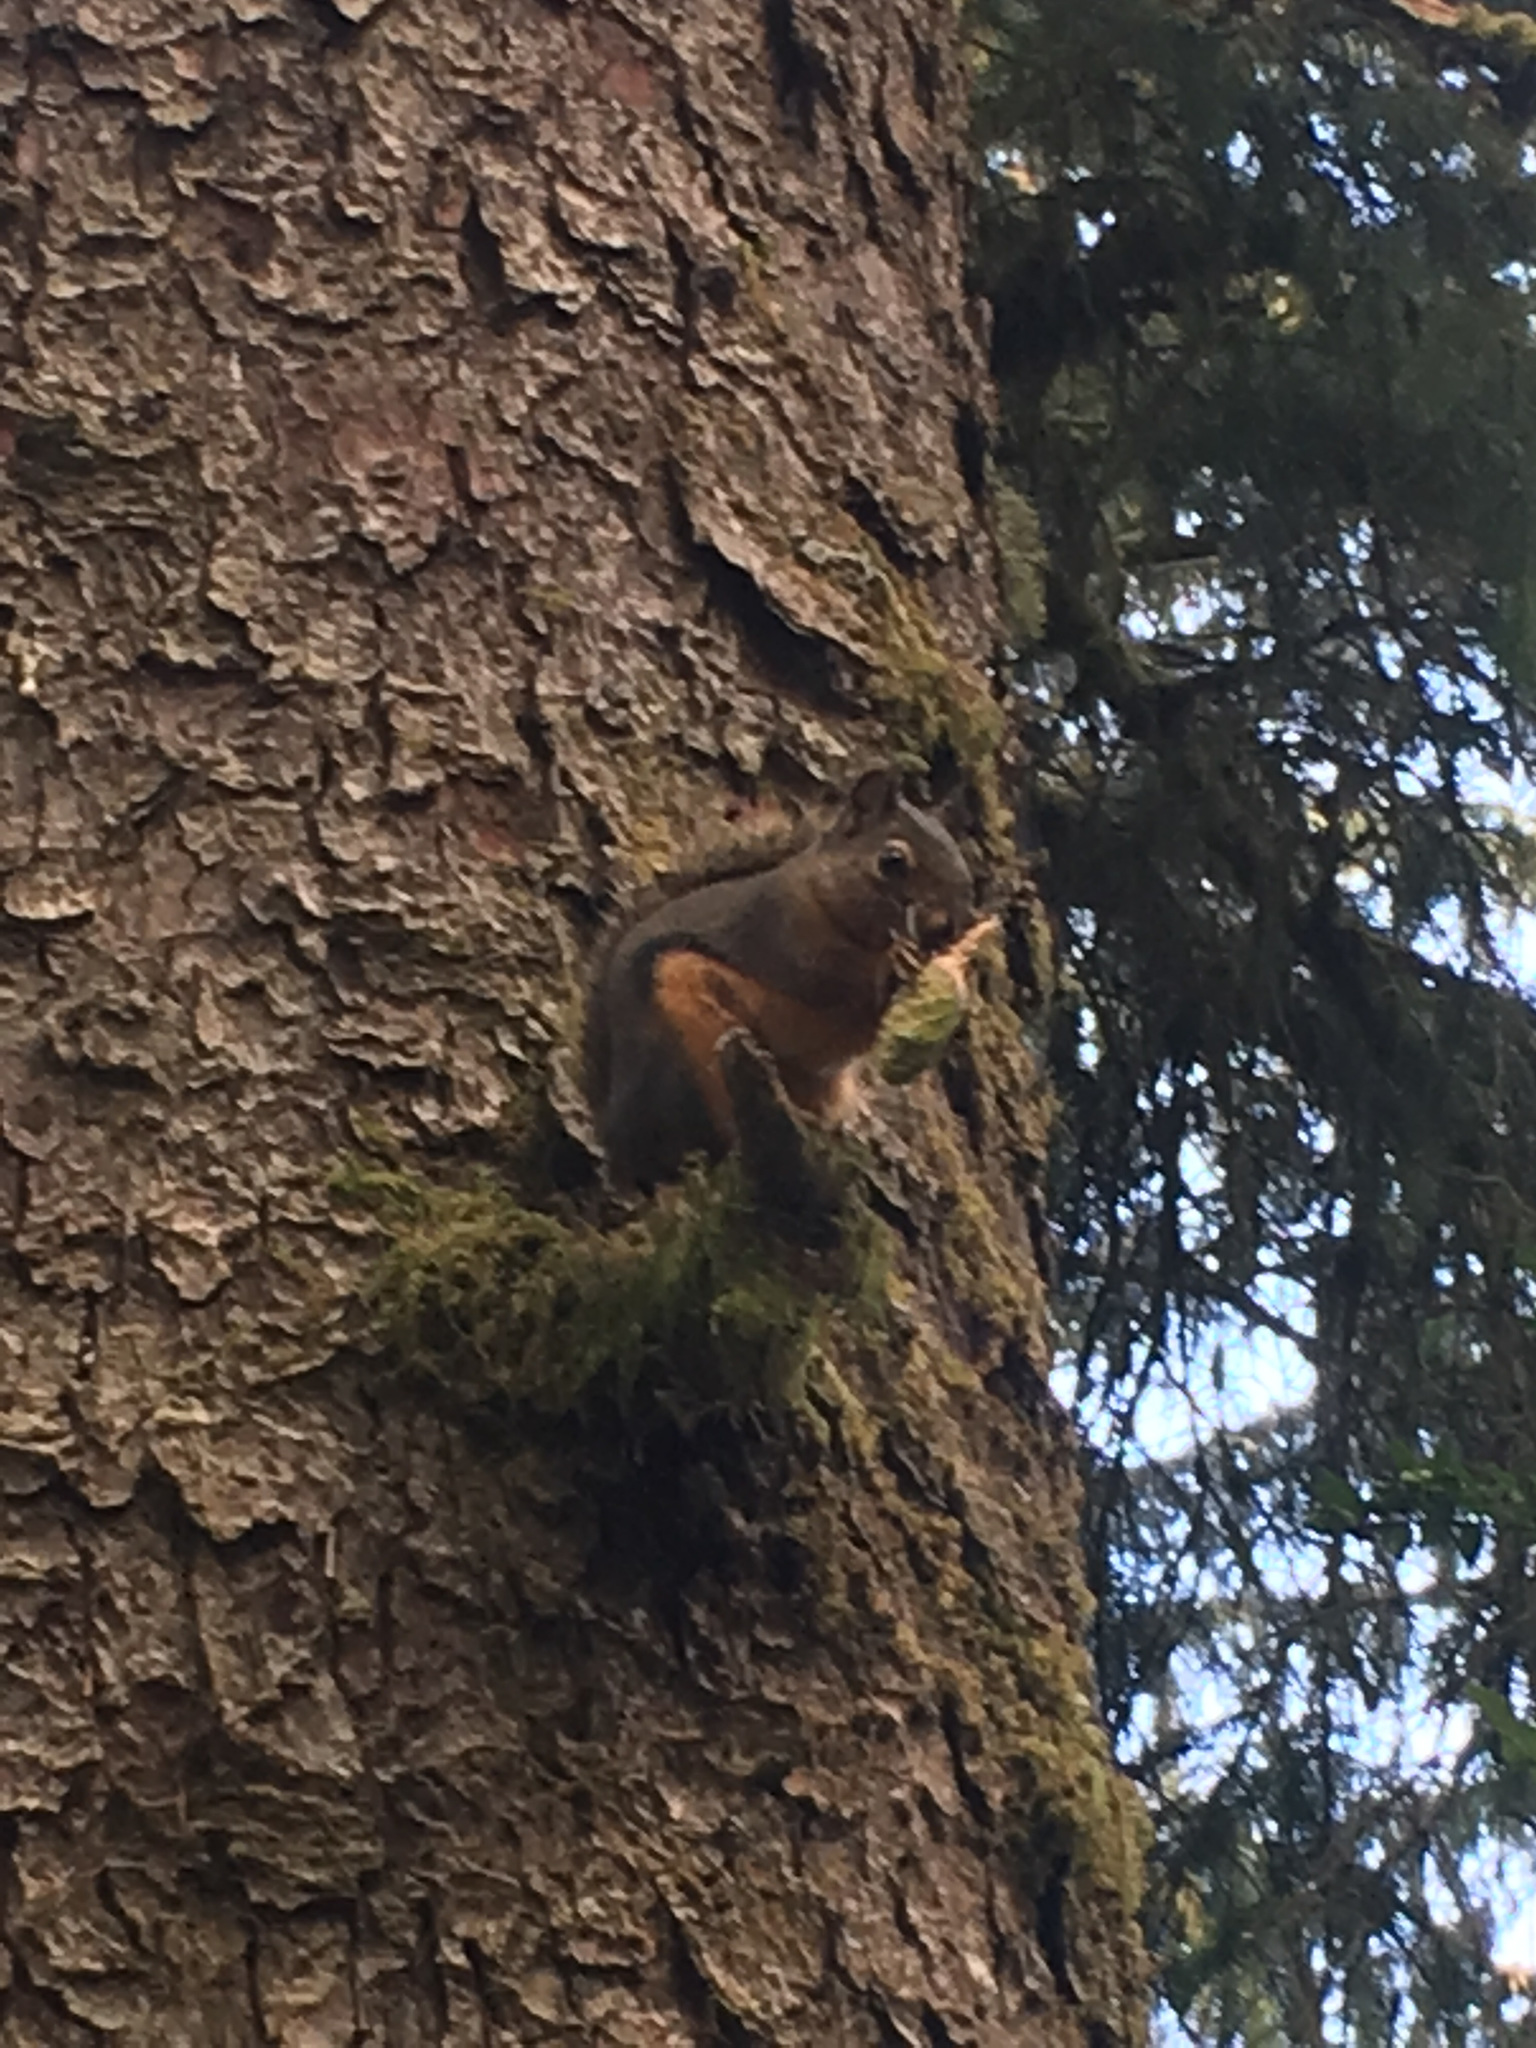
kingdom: Animalia
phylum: Chordata
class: Mammalia
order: Rodentia
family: Sciuridae
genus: Tamiasciurus
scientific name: Tamiasciurus douglasii
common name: Douglas's squirrel
